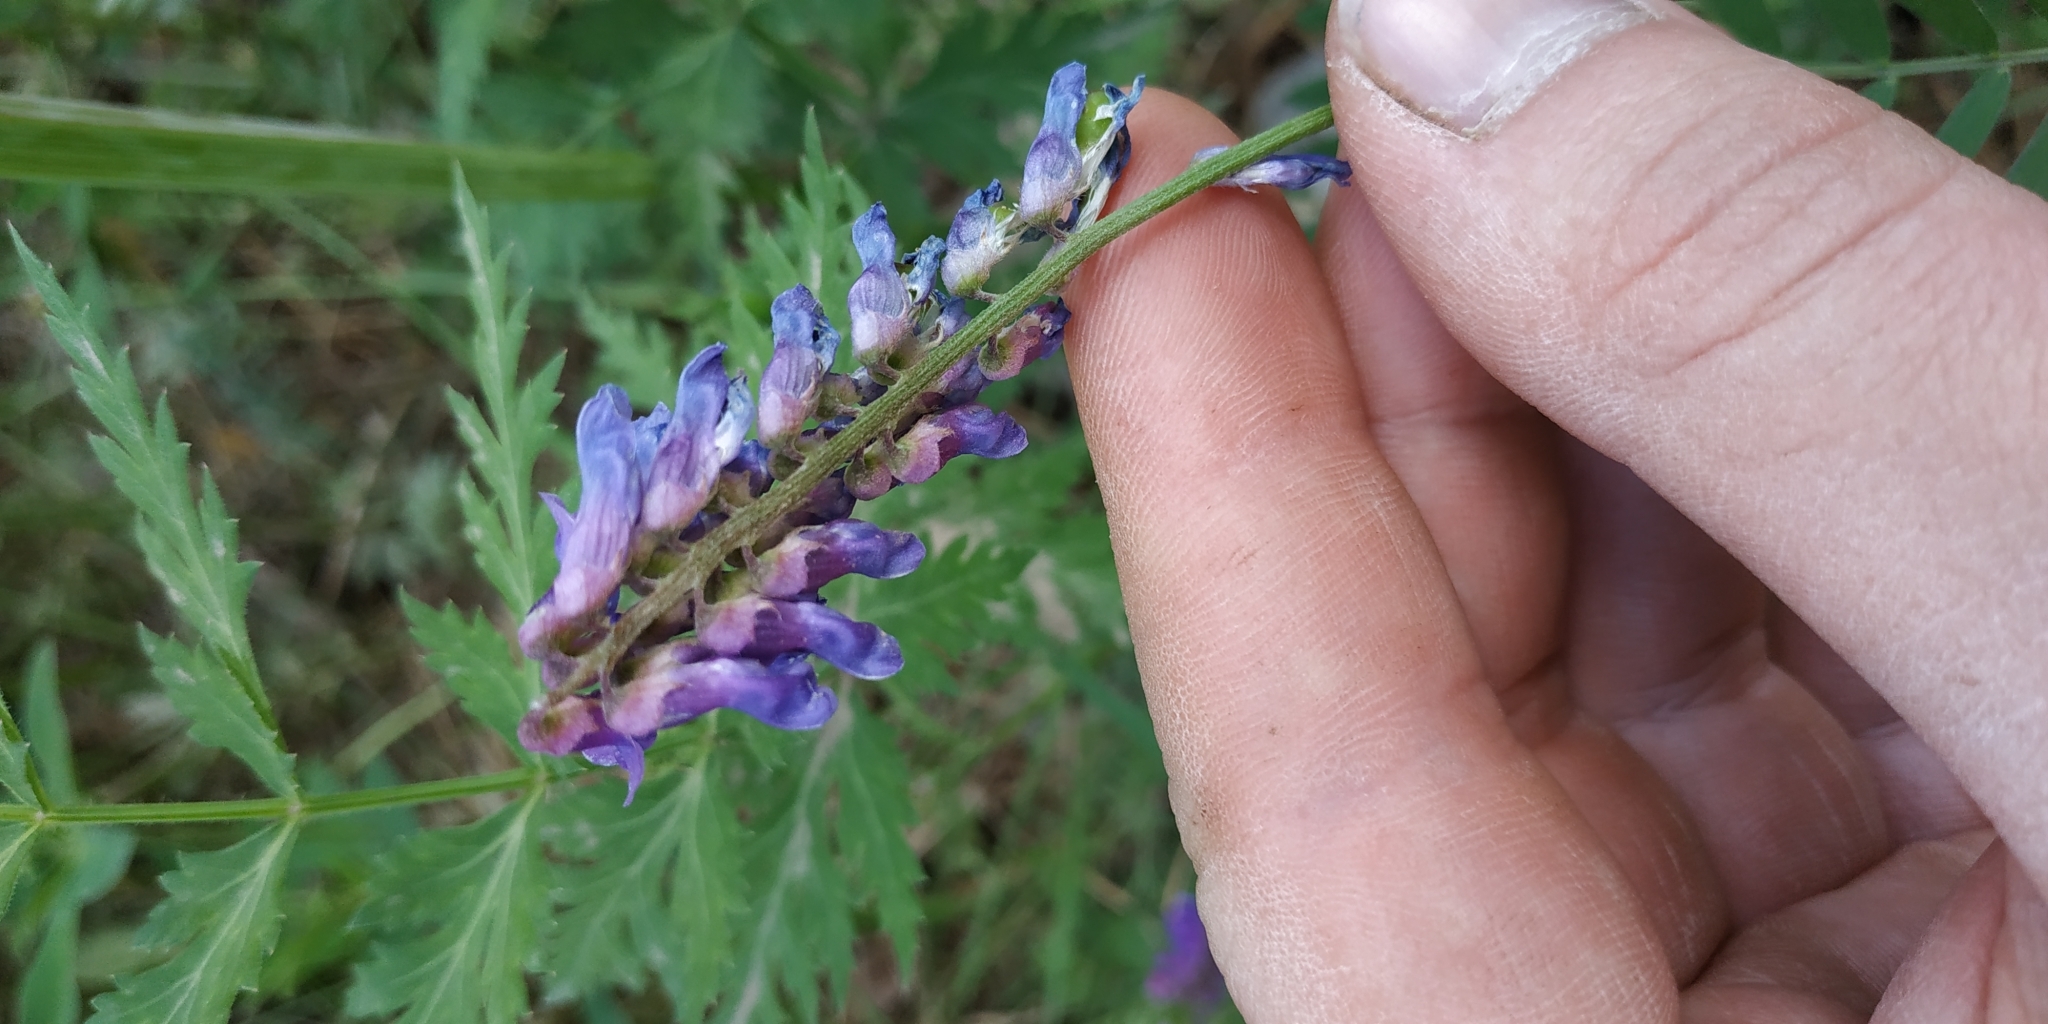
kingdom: Plantae
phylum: Tracheophyta
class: Magnoliopsida
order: Fabales
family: Fabaceae
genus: Vicia
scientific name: Vicia cracca
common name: Bird vetch
